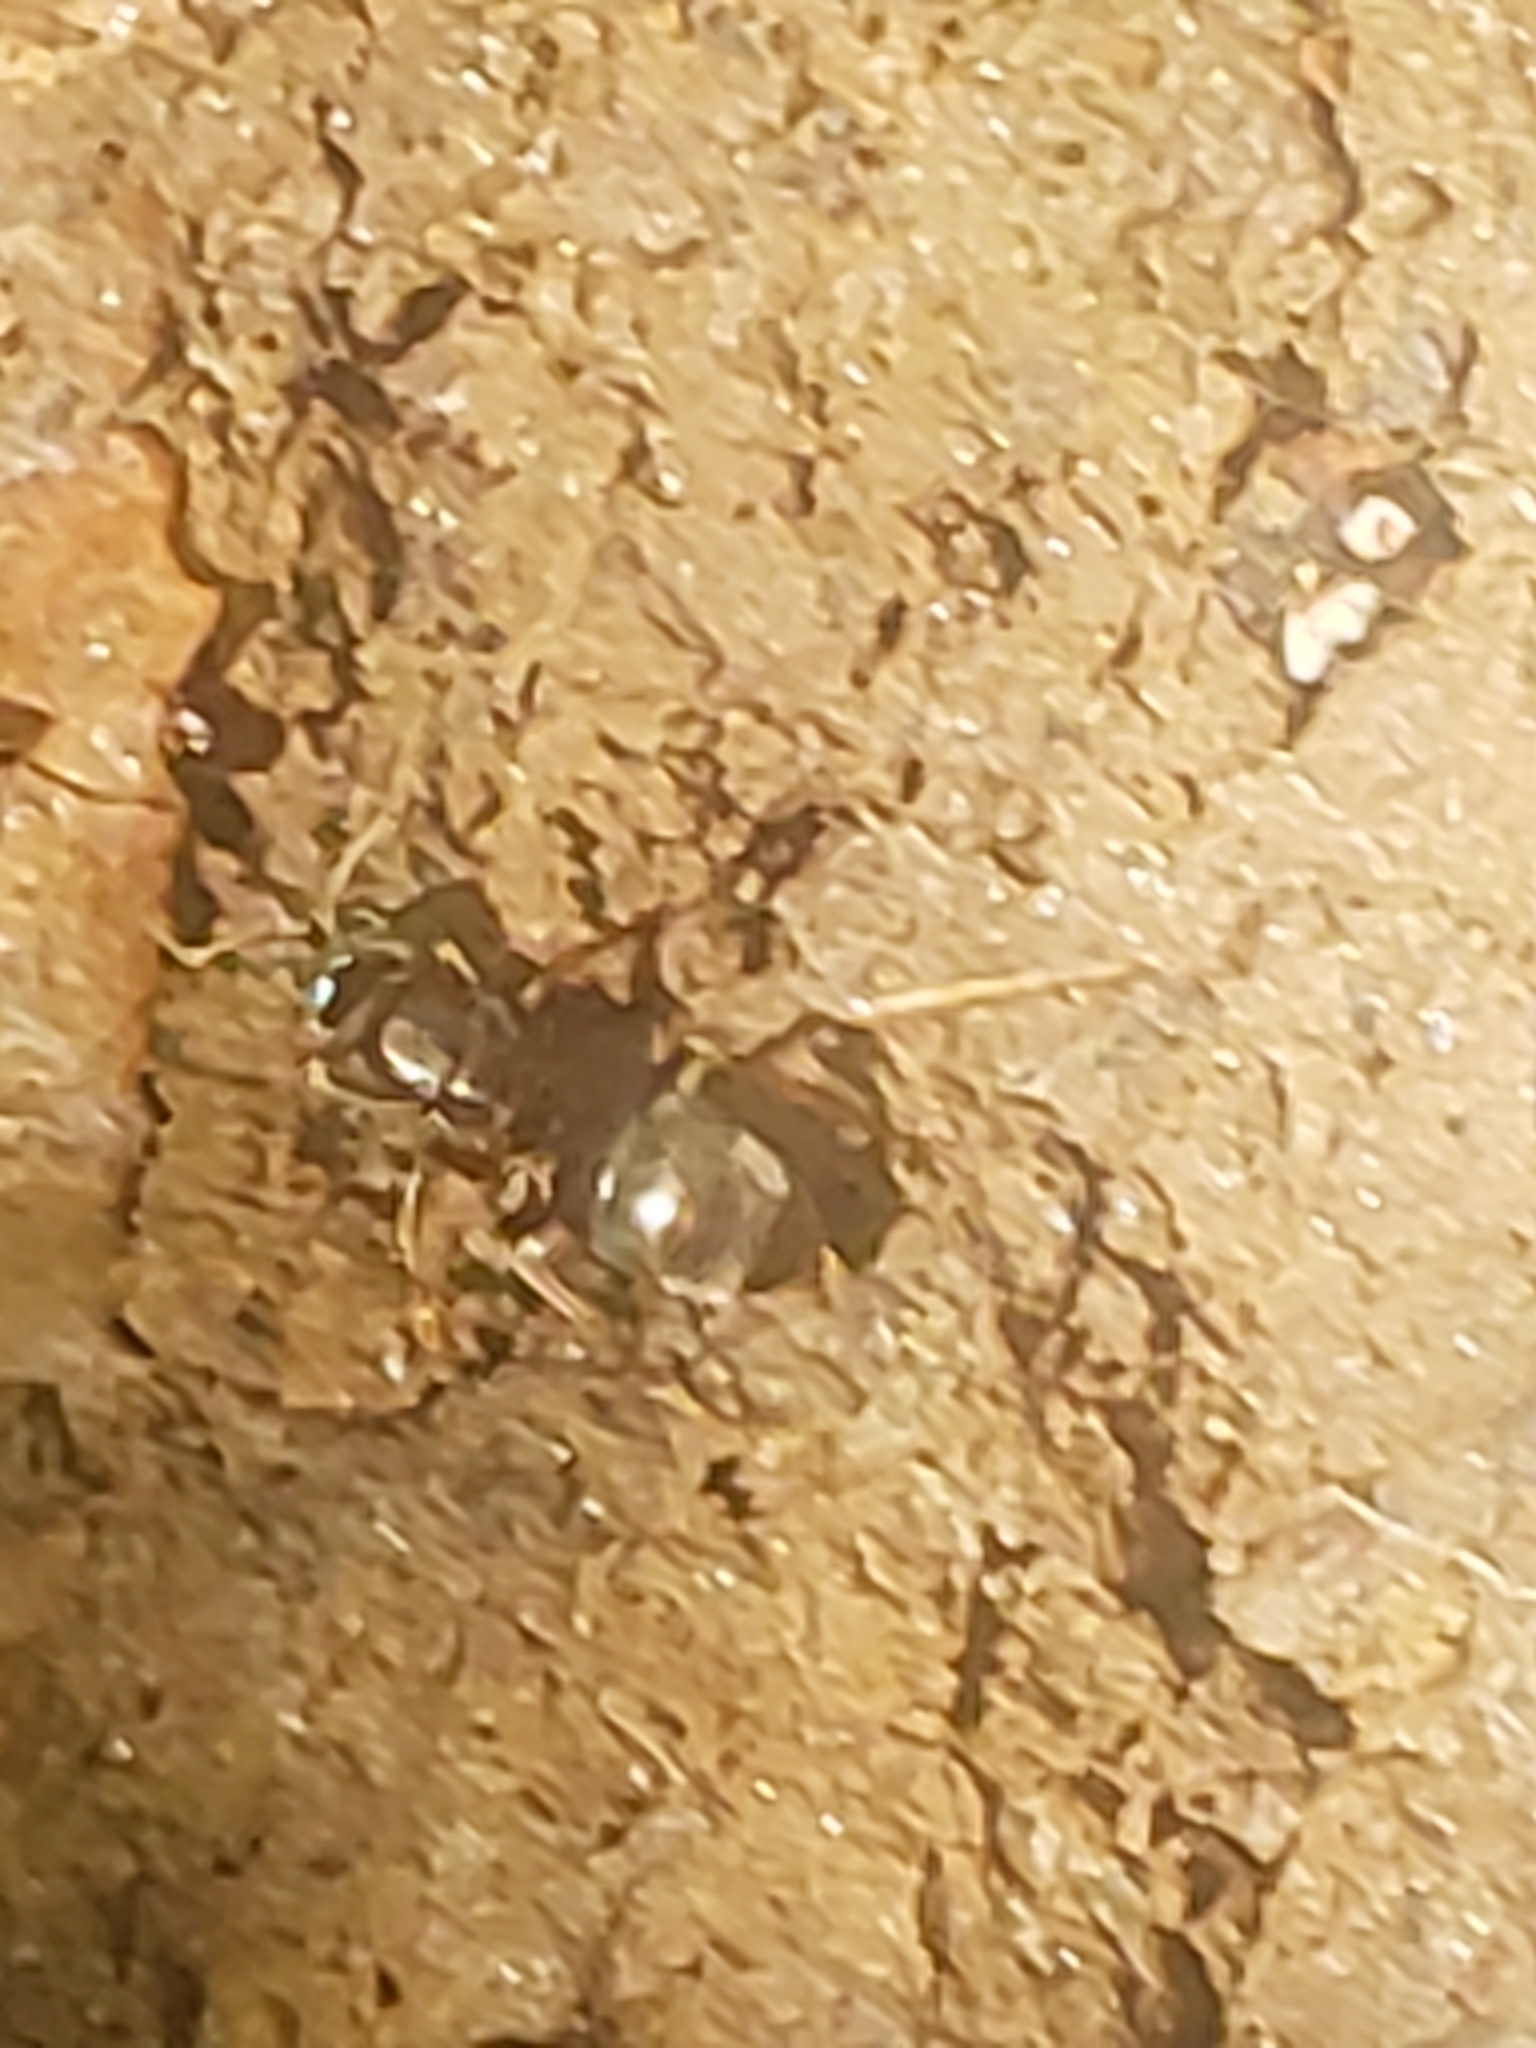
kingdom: Animalia
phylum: Arthropoda
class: Insecta
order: Hymenoptera
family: Formicidae
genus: Lasius
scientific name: Lasius aphidicola
